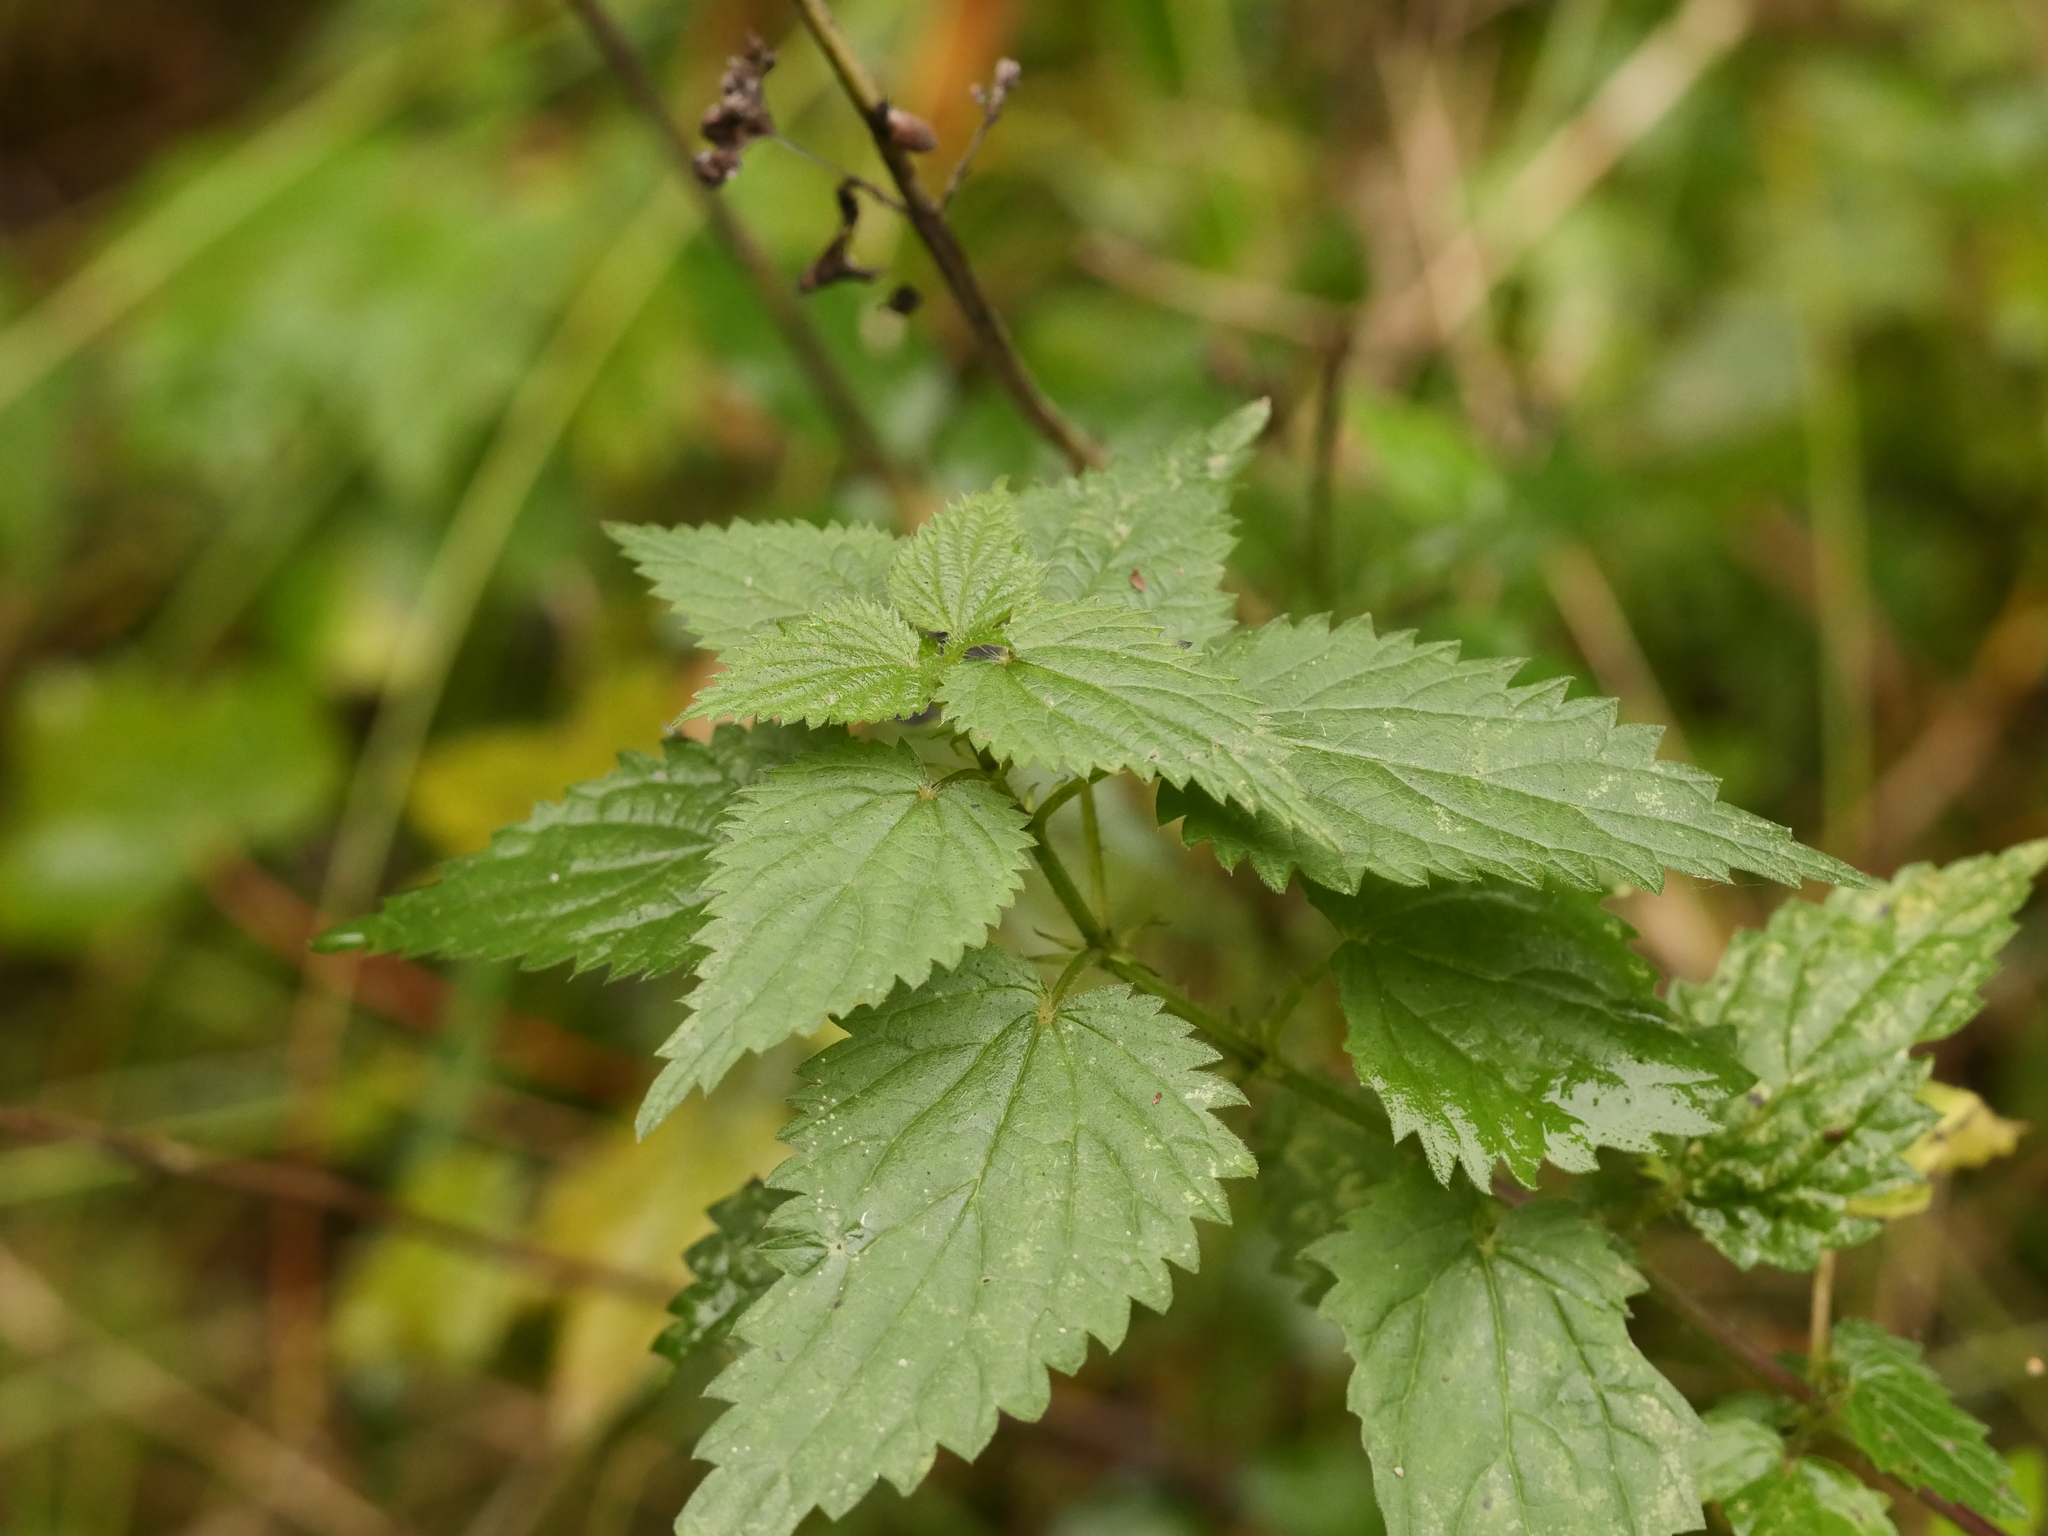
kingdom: Plantae
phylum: Tracheophyta
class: Magnoliopsida
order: Rosales
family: Urticaceae
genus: Urtica
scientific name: Urtica dioica
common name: Common nettle
